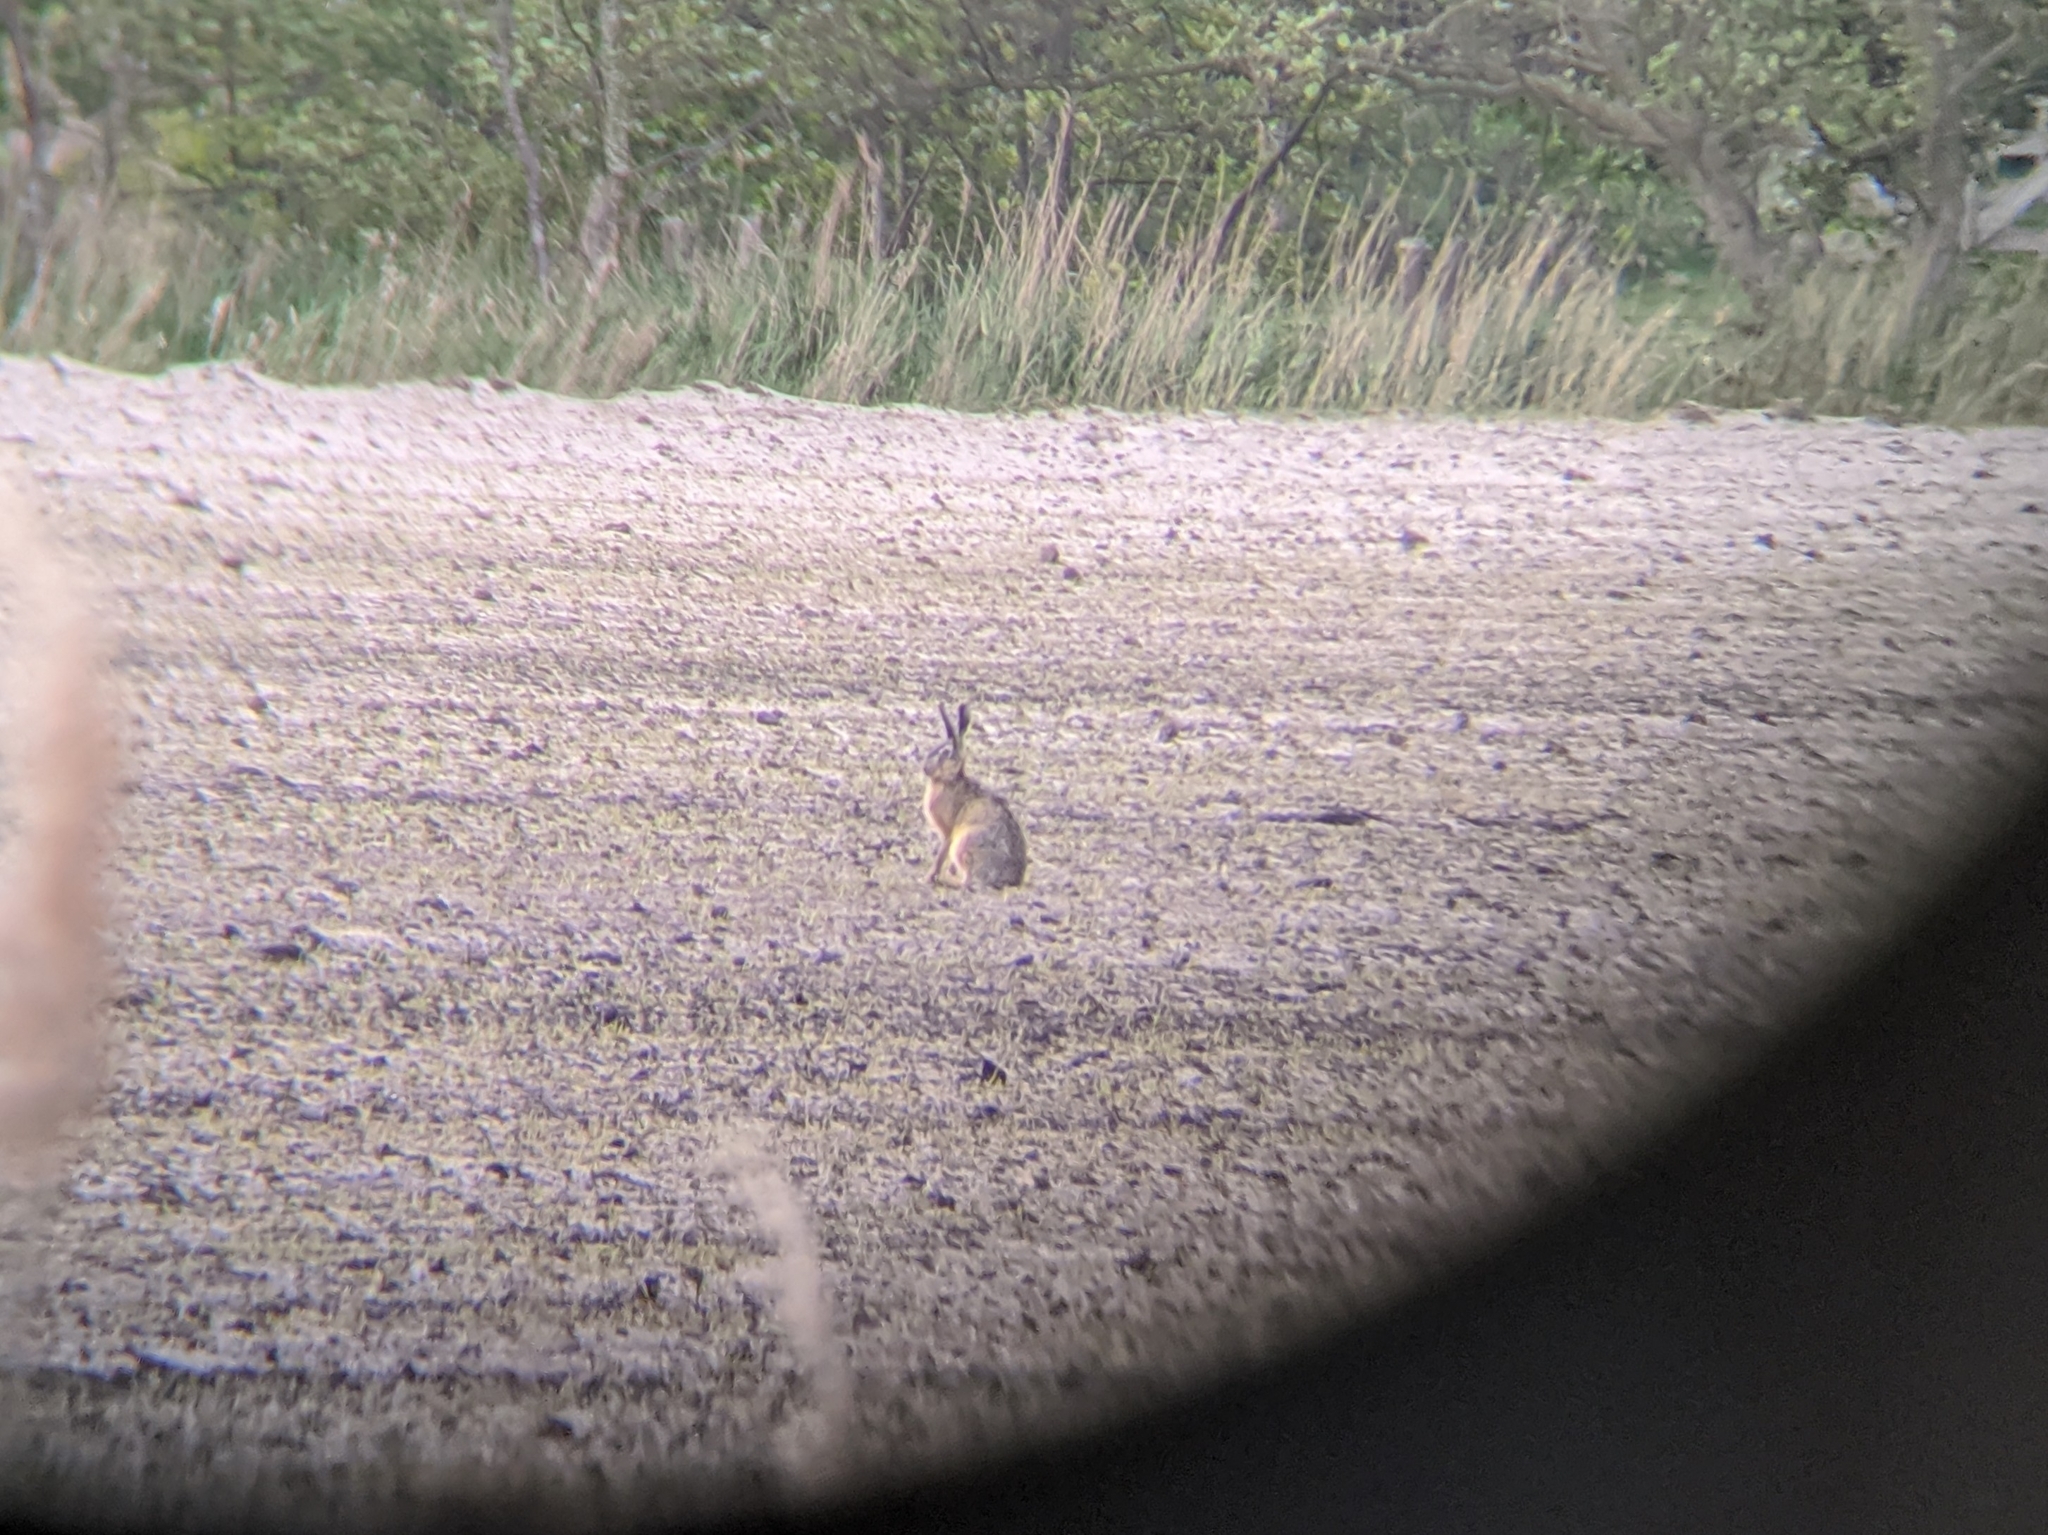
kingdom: Animalia
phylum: Chordata
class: Mammalia
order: Lagomorpha
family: Leporidae
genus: Lepus
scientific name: Lepus europaeus
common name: European hare
